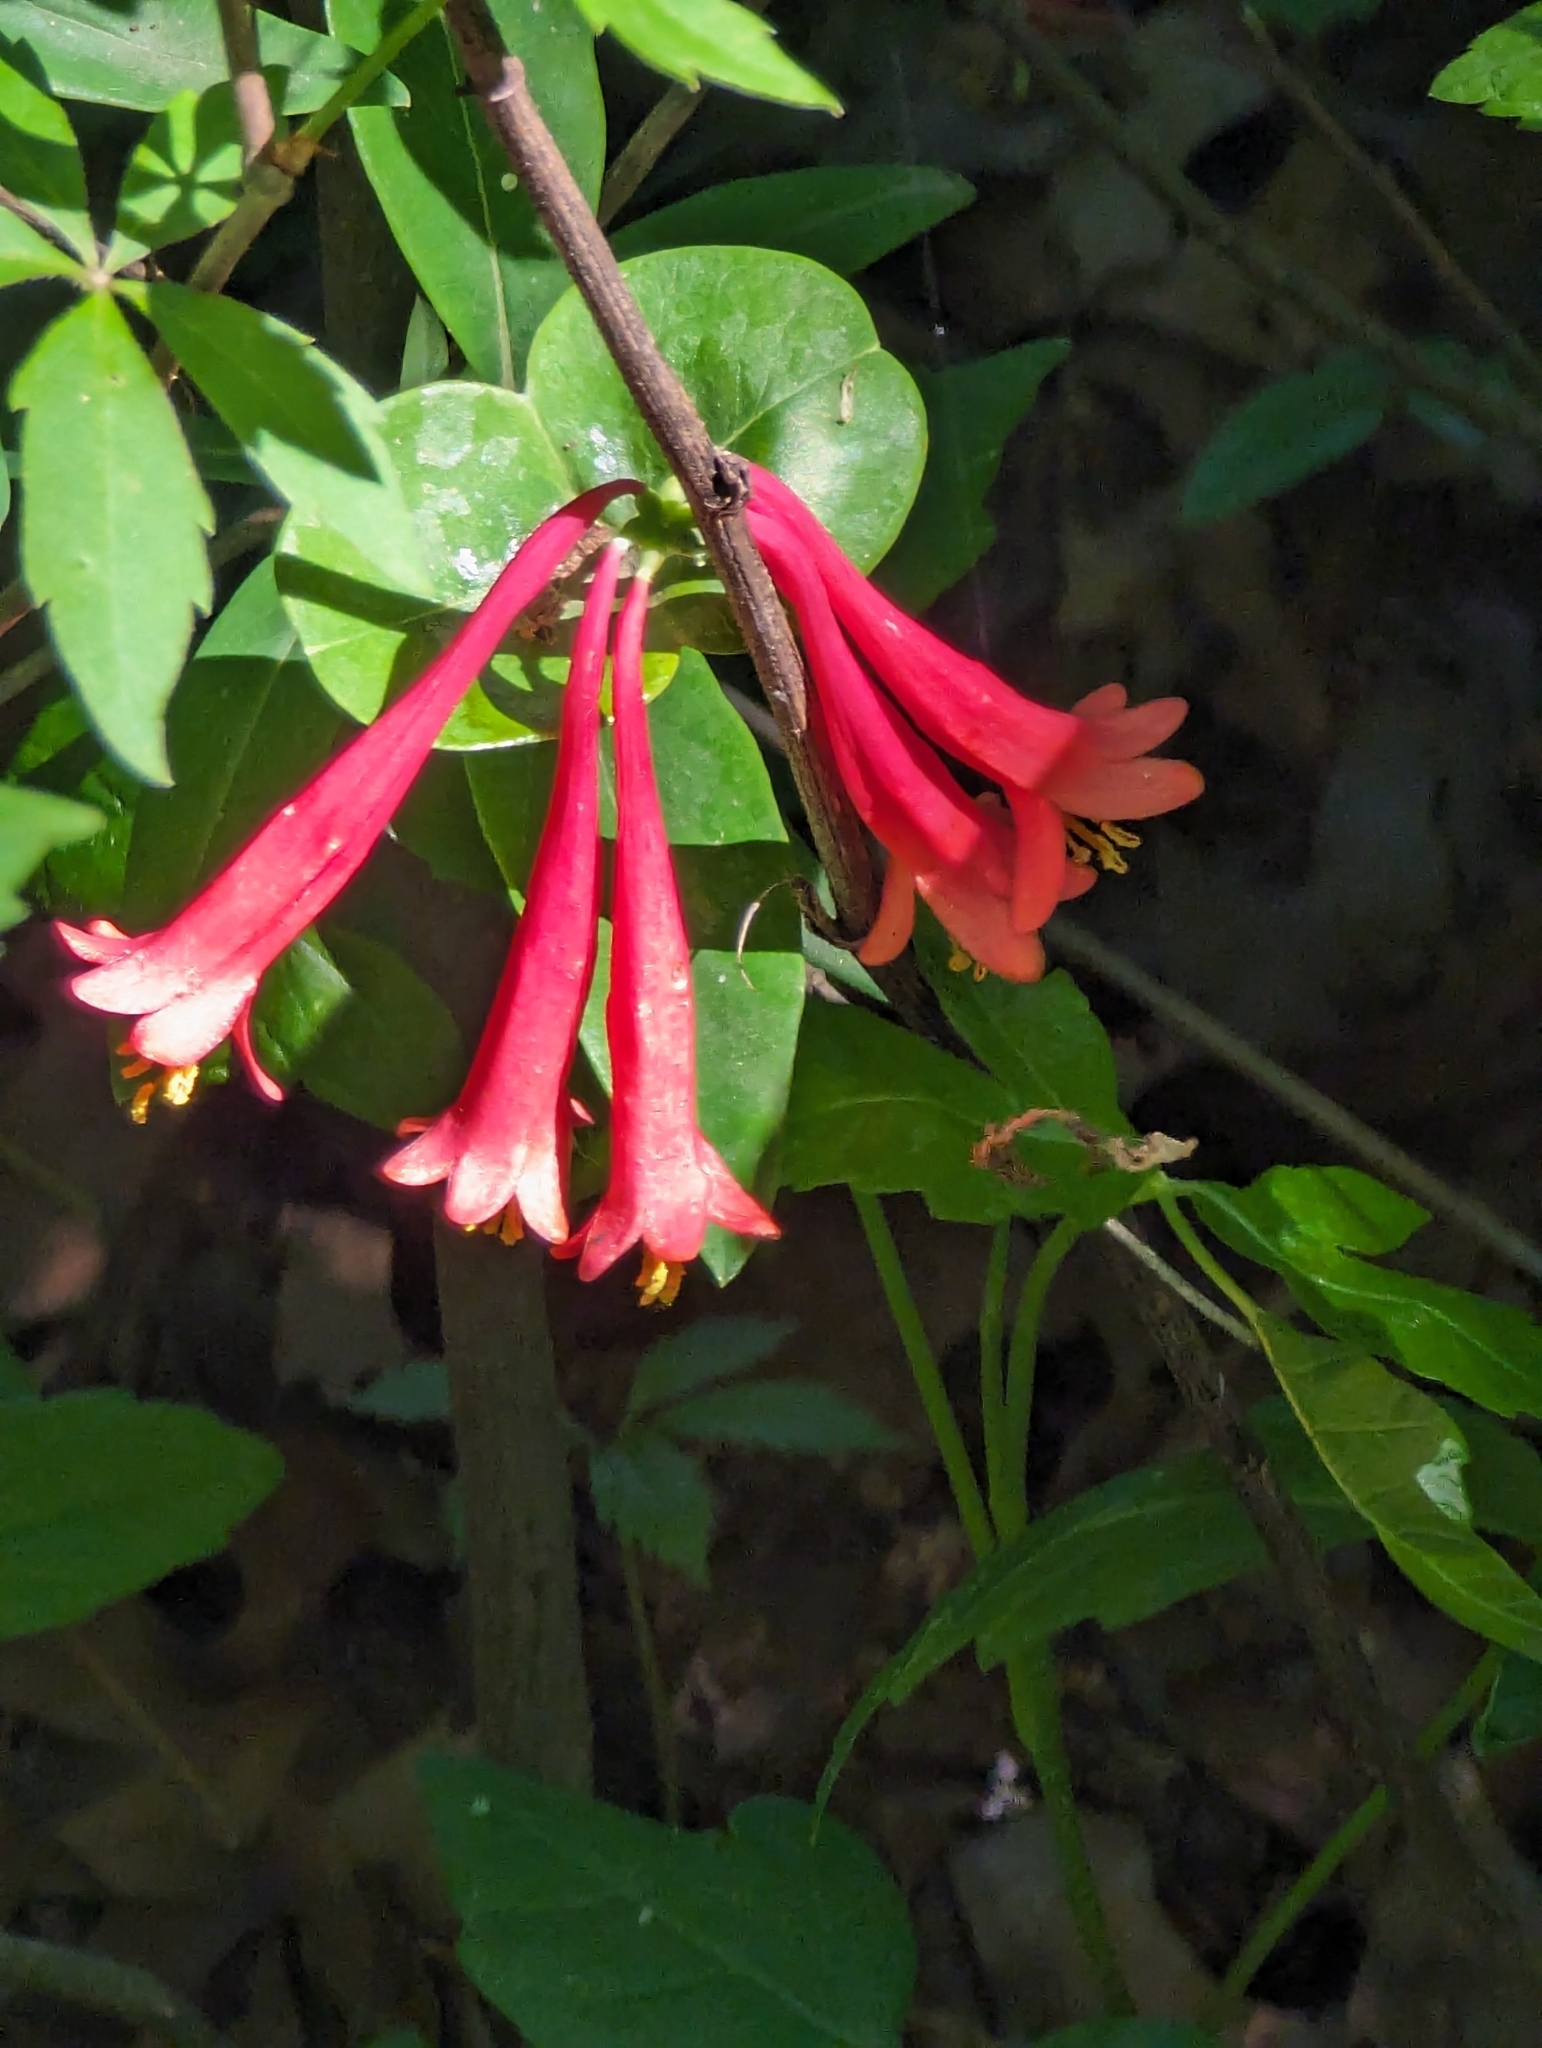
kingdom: Plantae
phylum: Tracheophyta
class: Magnoliopsida
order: Dipsacales
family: Caprifoliaceae
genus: Lonicera
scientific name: Lonicera sempervirens
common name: Coral honeysuckle
